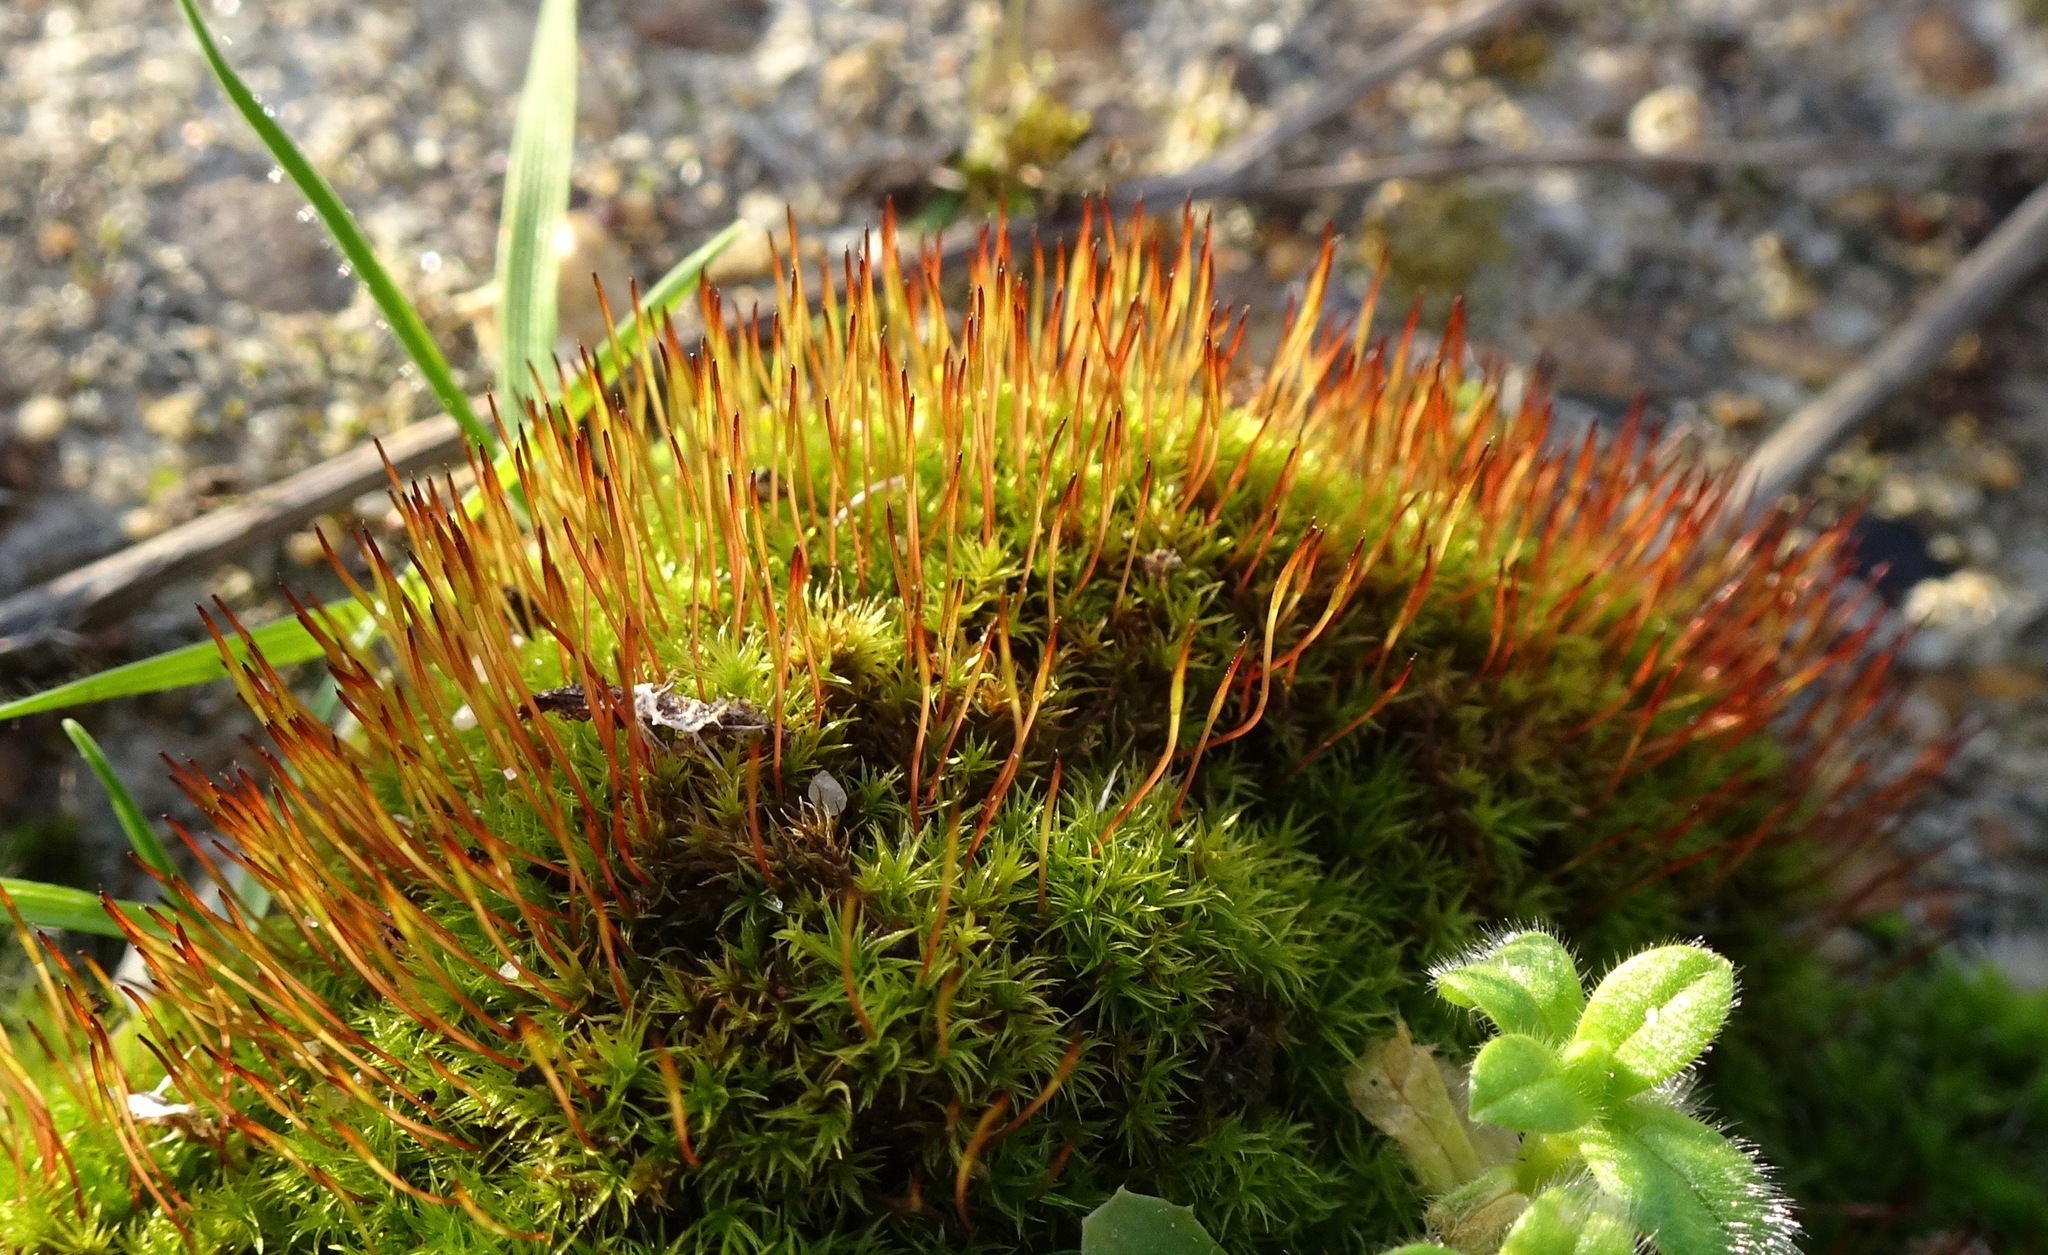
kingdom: Plantae
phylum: Bryophyta
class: Bryopsida
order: Dicranales
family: Ditrichaceae
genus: Ceratodon
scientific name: Ceratodon purpureus
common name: Redshank
